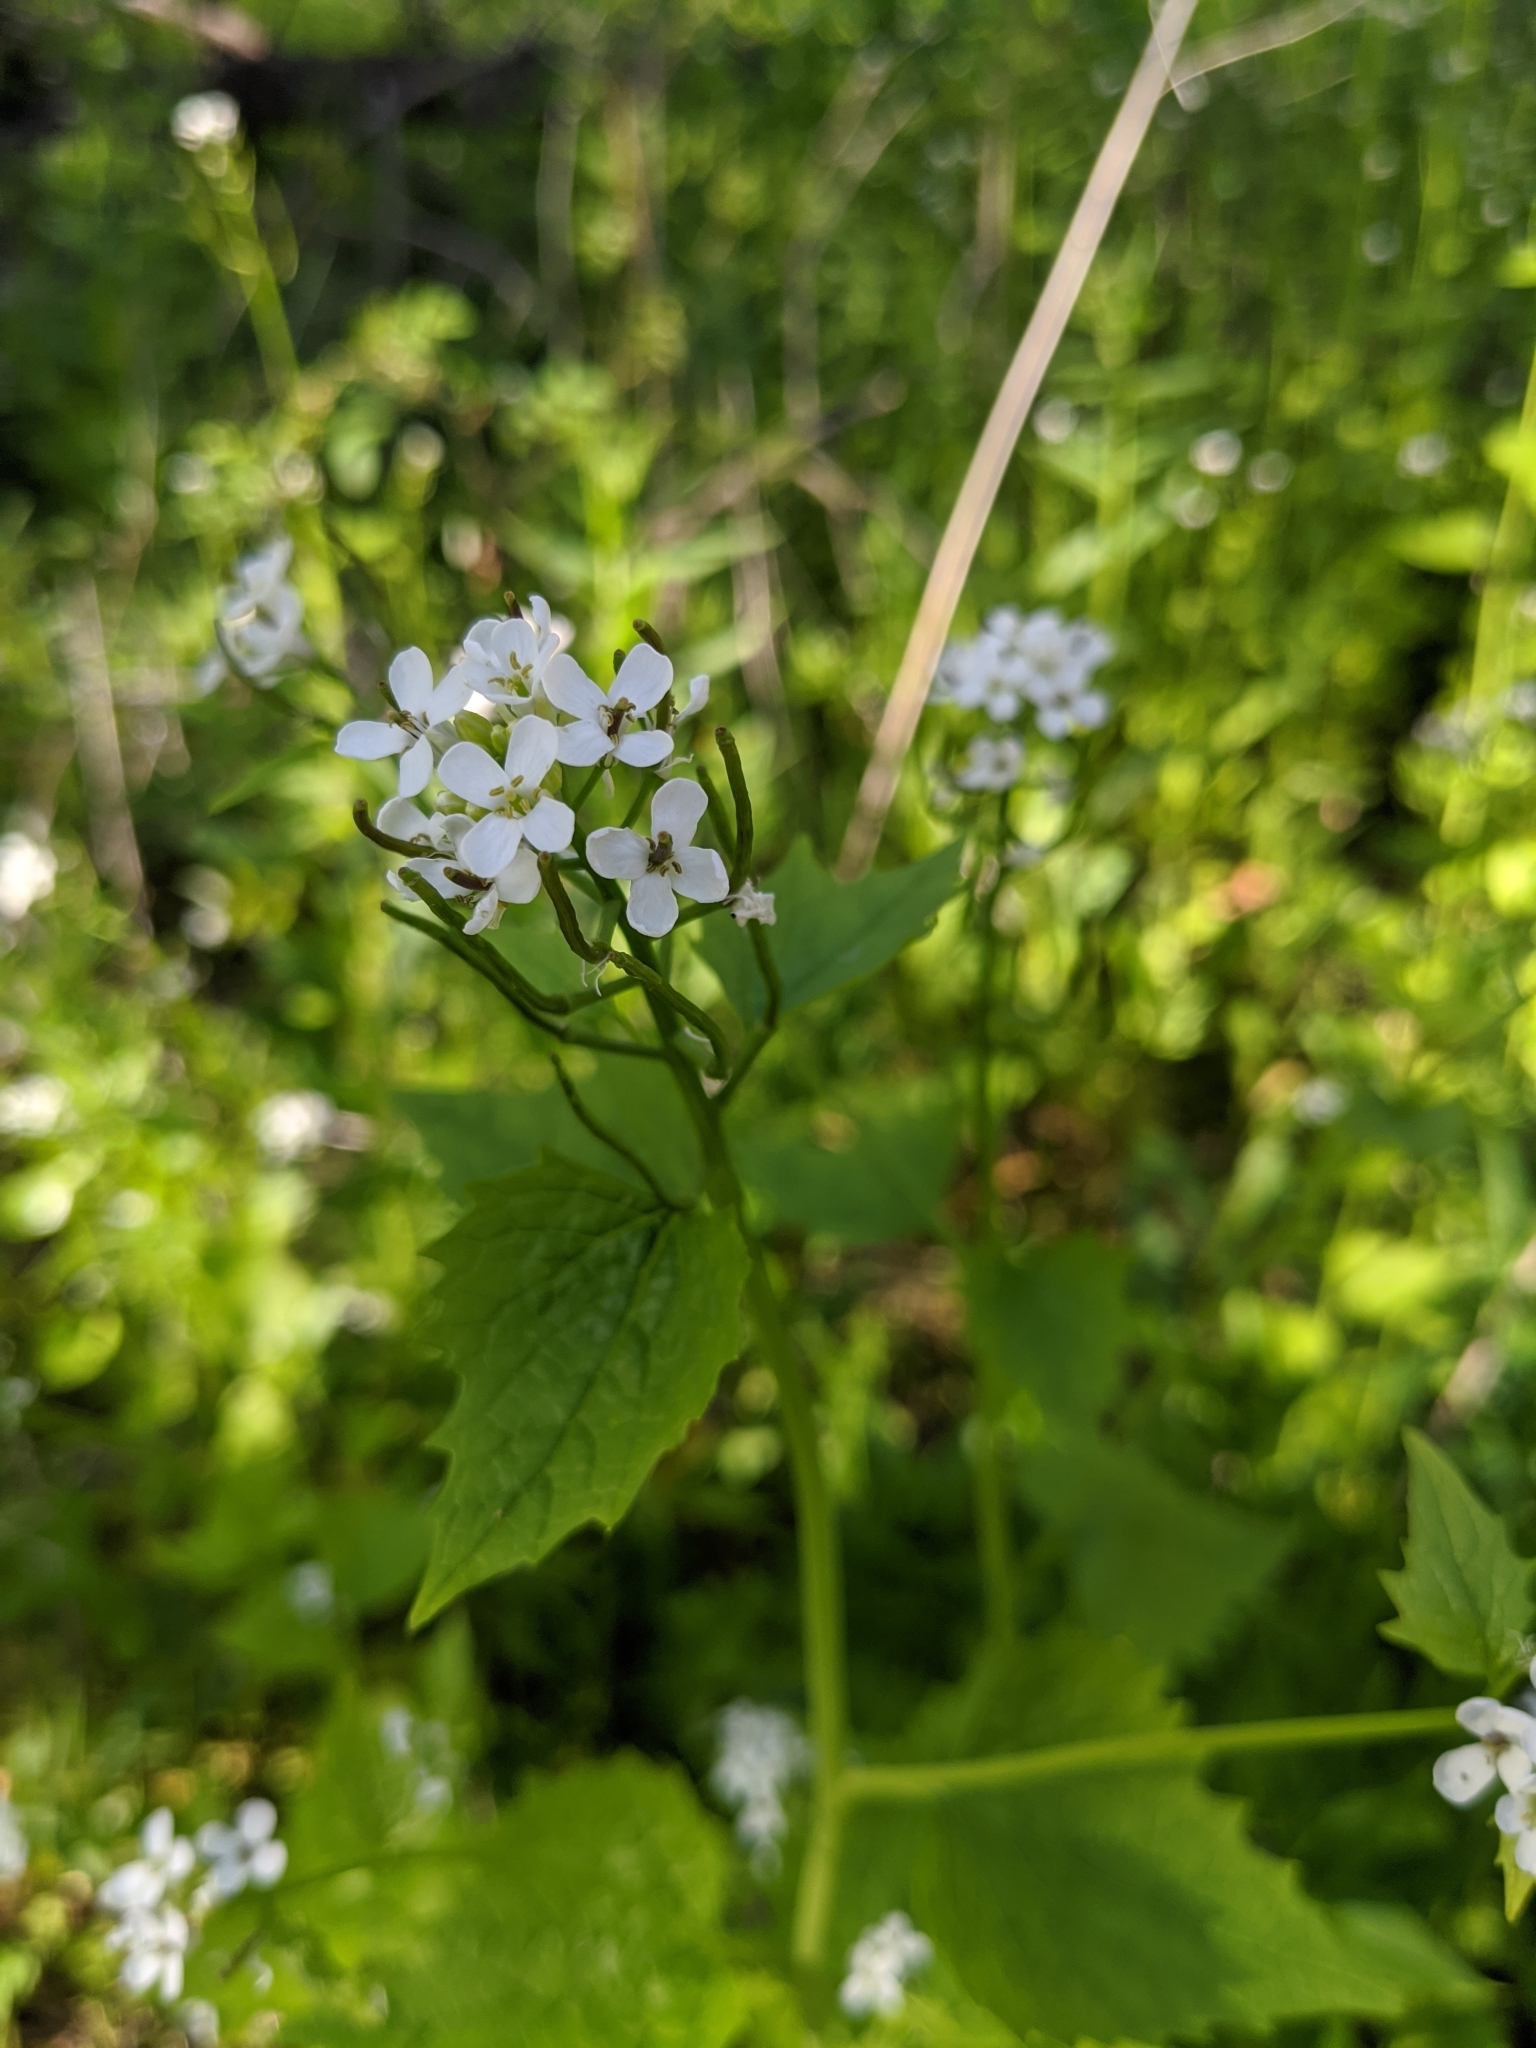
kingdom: Plantae
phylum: Tracheophyta
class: Magnoliopsida
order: Brassicales
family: Brassicaceae
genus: Alliaria
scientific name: Alliaria petiolata
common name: Garlic mustard
